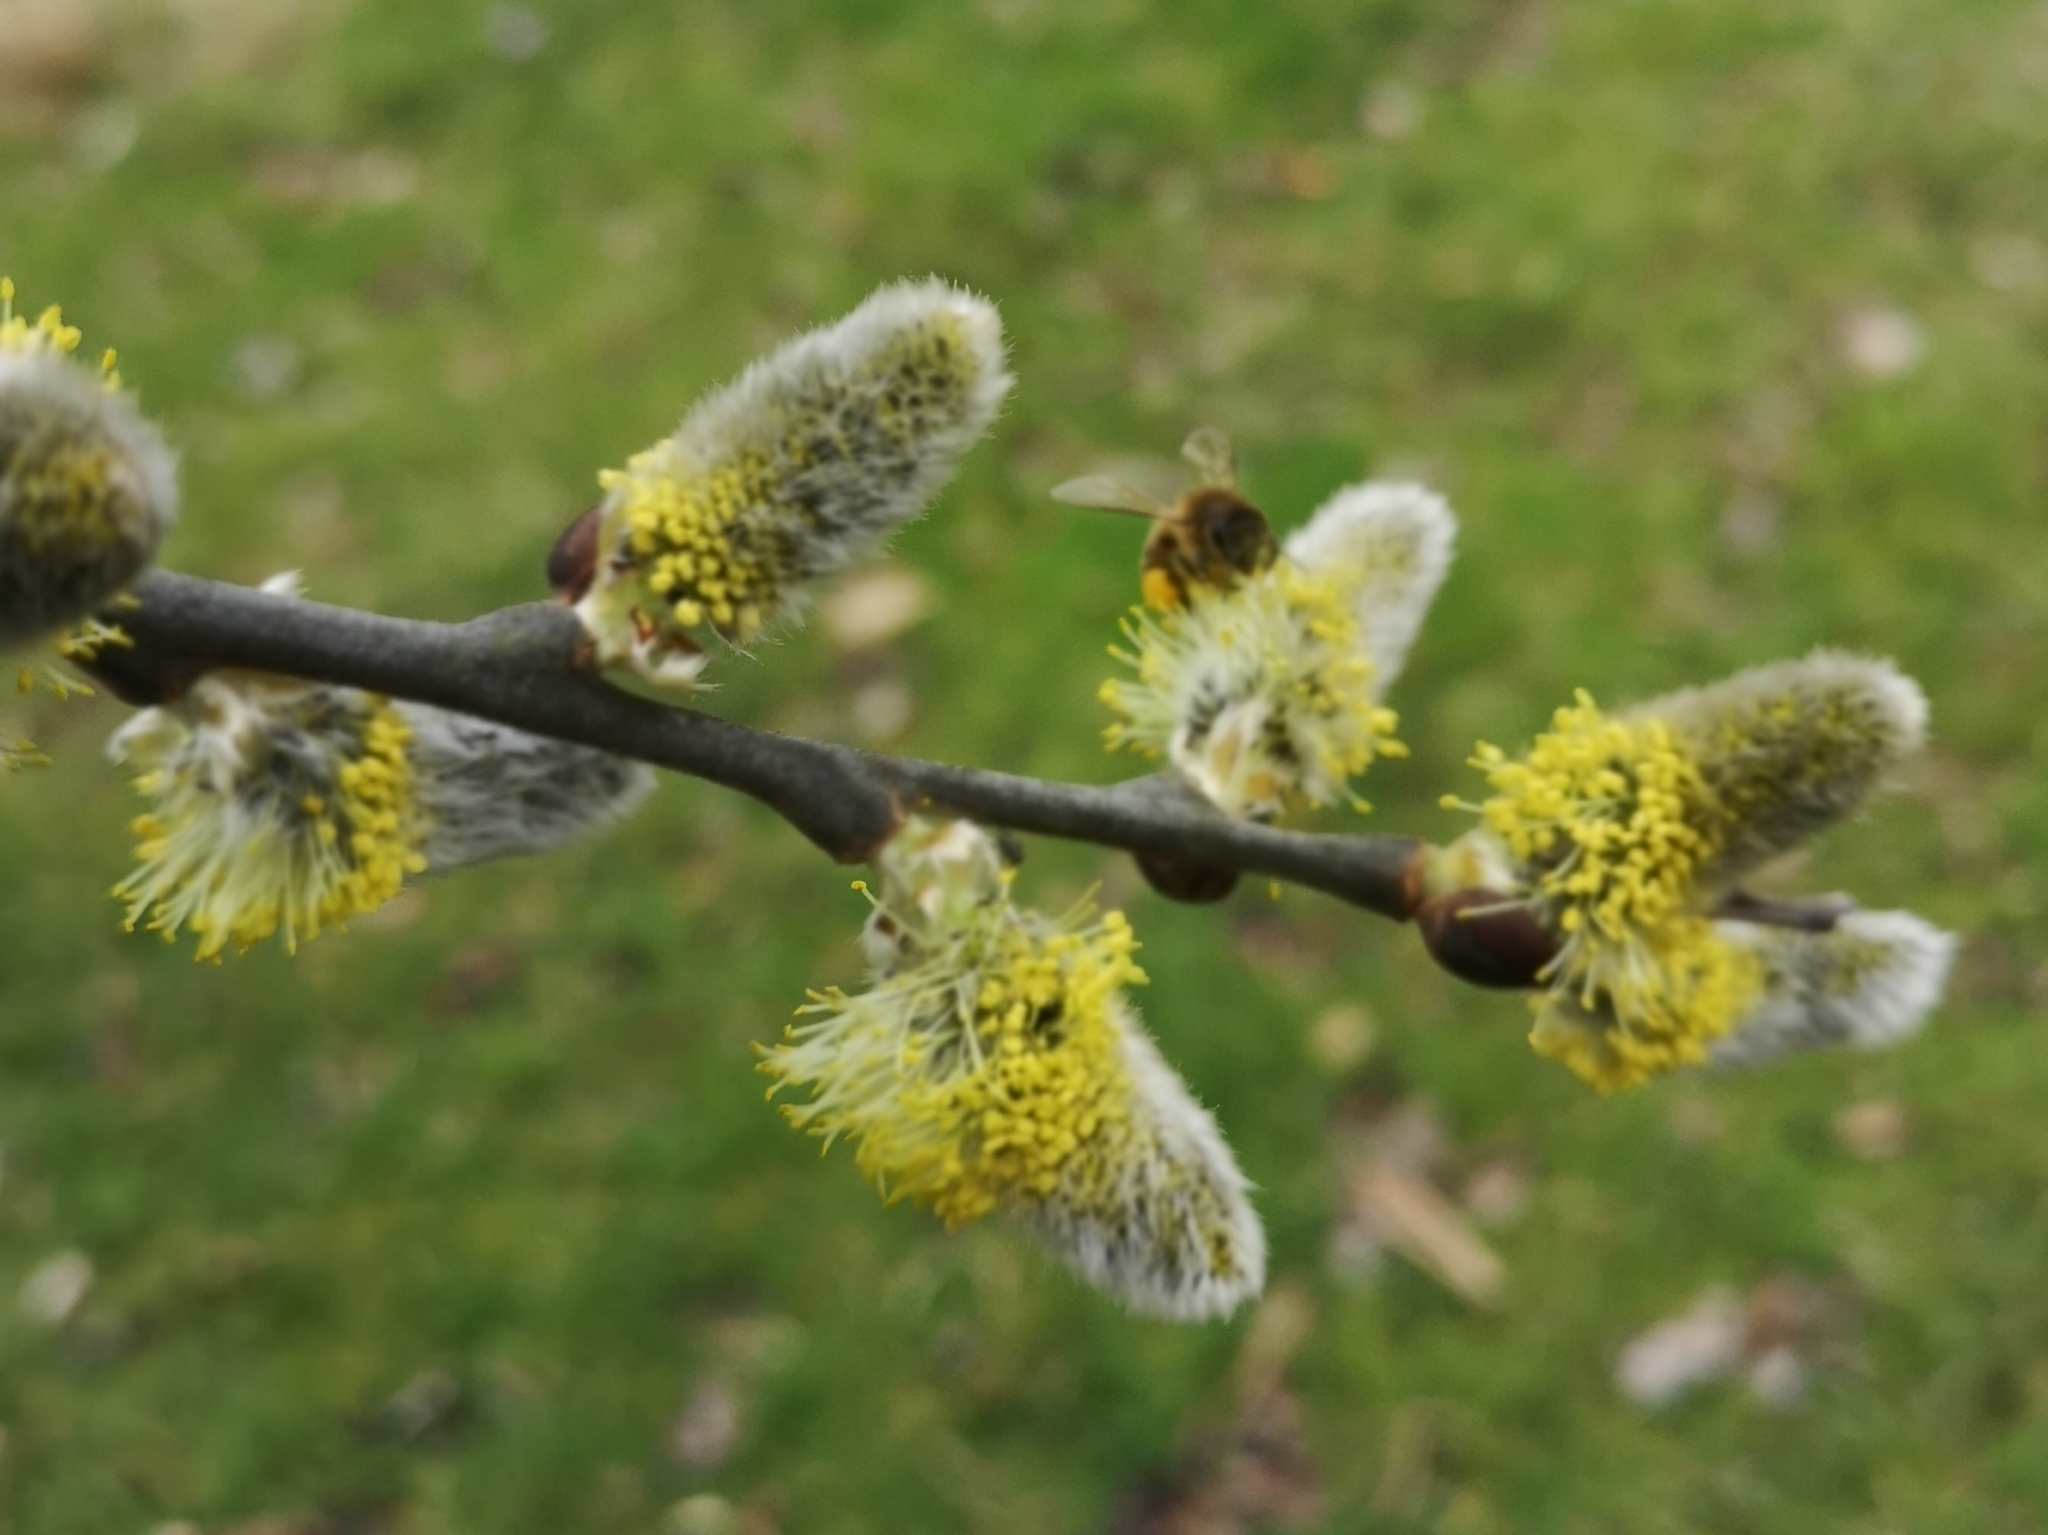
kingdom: Plantae
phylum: Tracheophyta
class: Magnoliopsida
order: Malpighiales
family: Salicaceae
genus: Salix
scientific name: Salix caprea
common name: Goat willow
